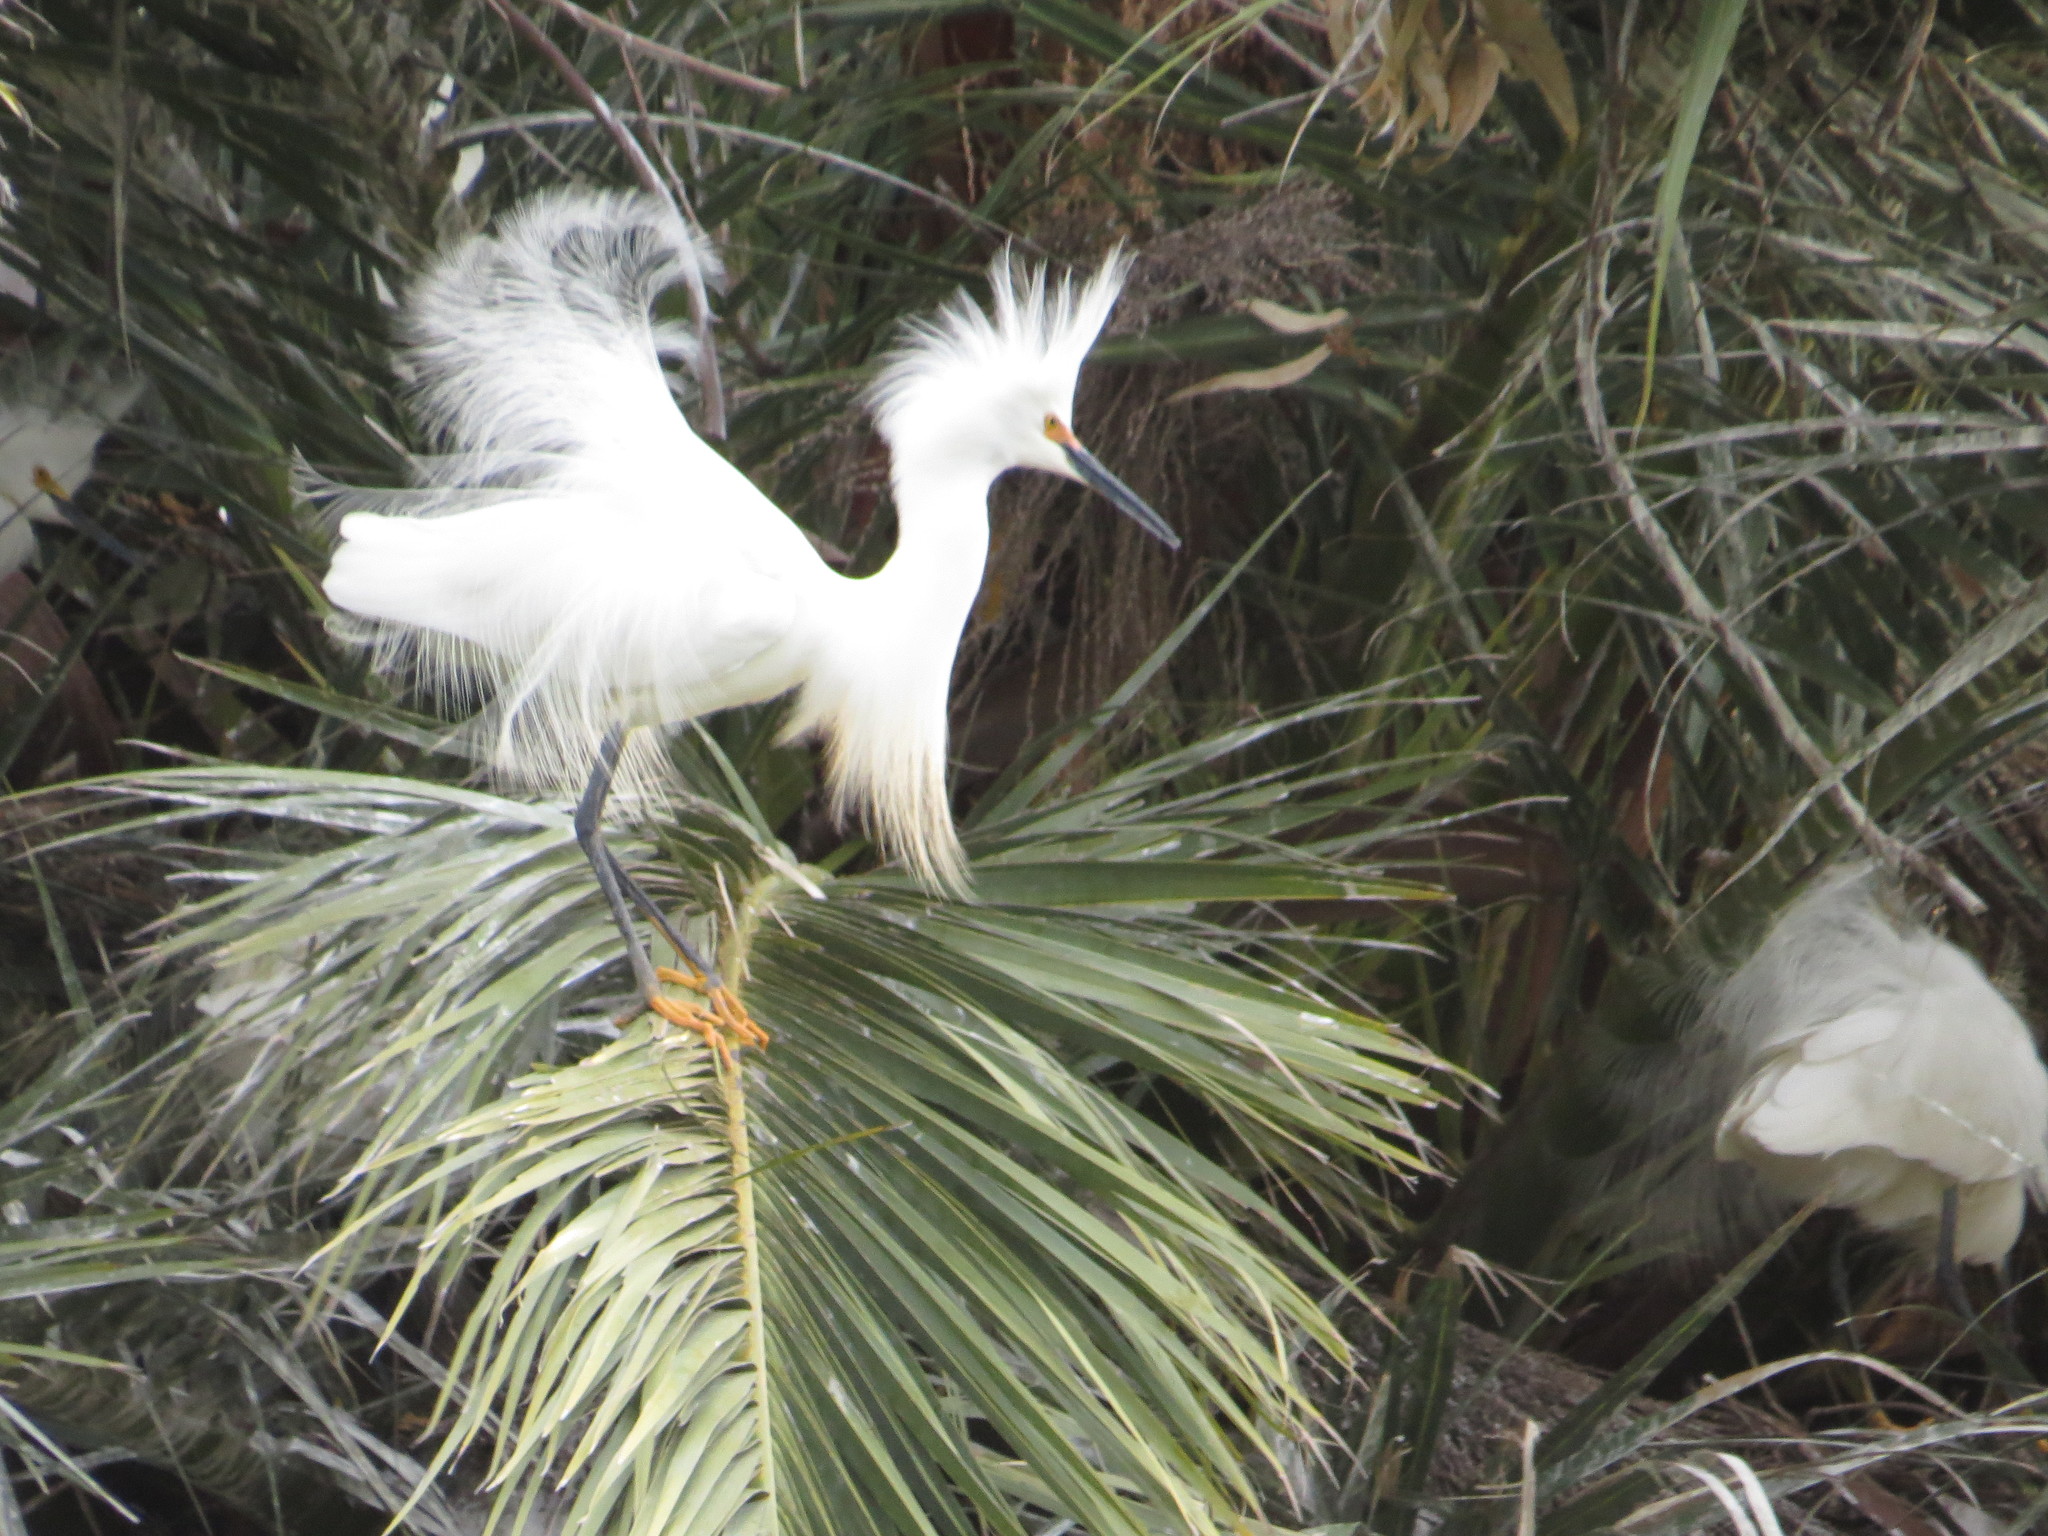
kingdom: Animalia
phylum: Chordata
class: Aves
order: Pelecaniformes
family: Ardeidae
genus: Egretta
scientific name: Egretta thula
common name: Snowy egret
